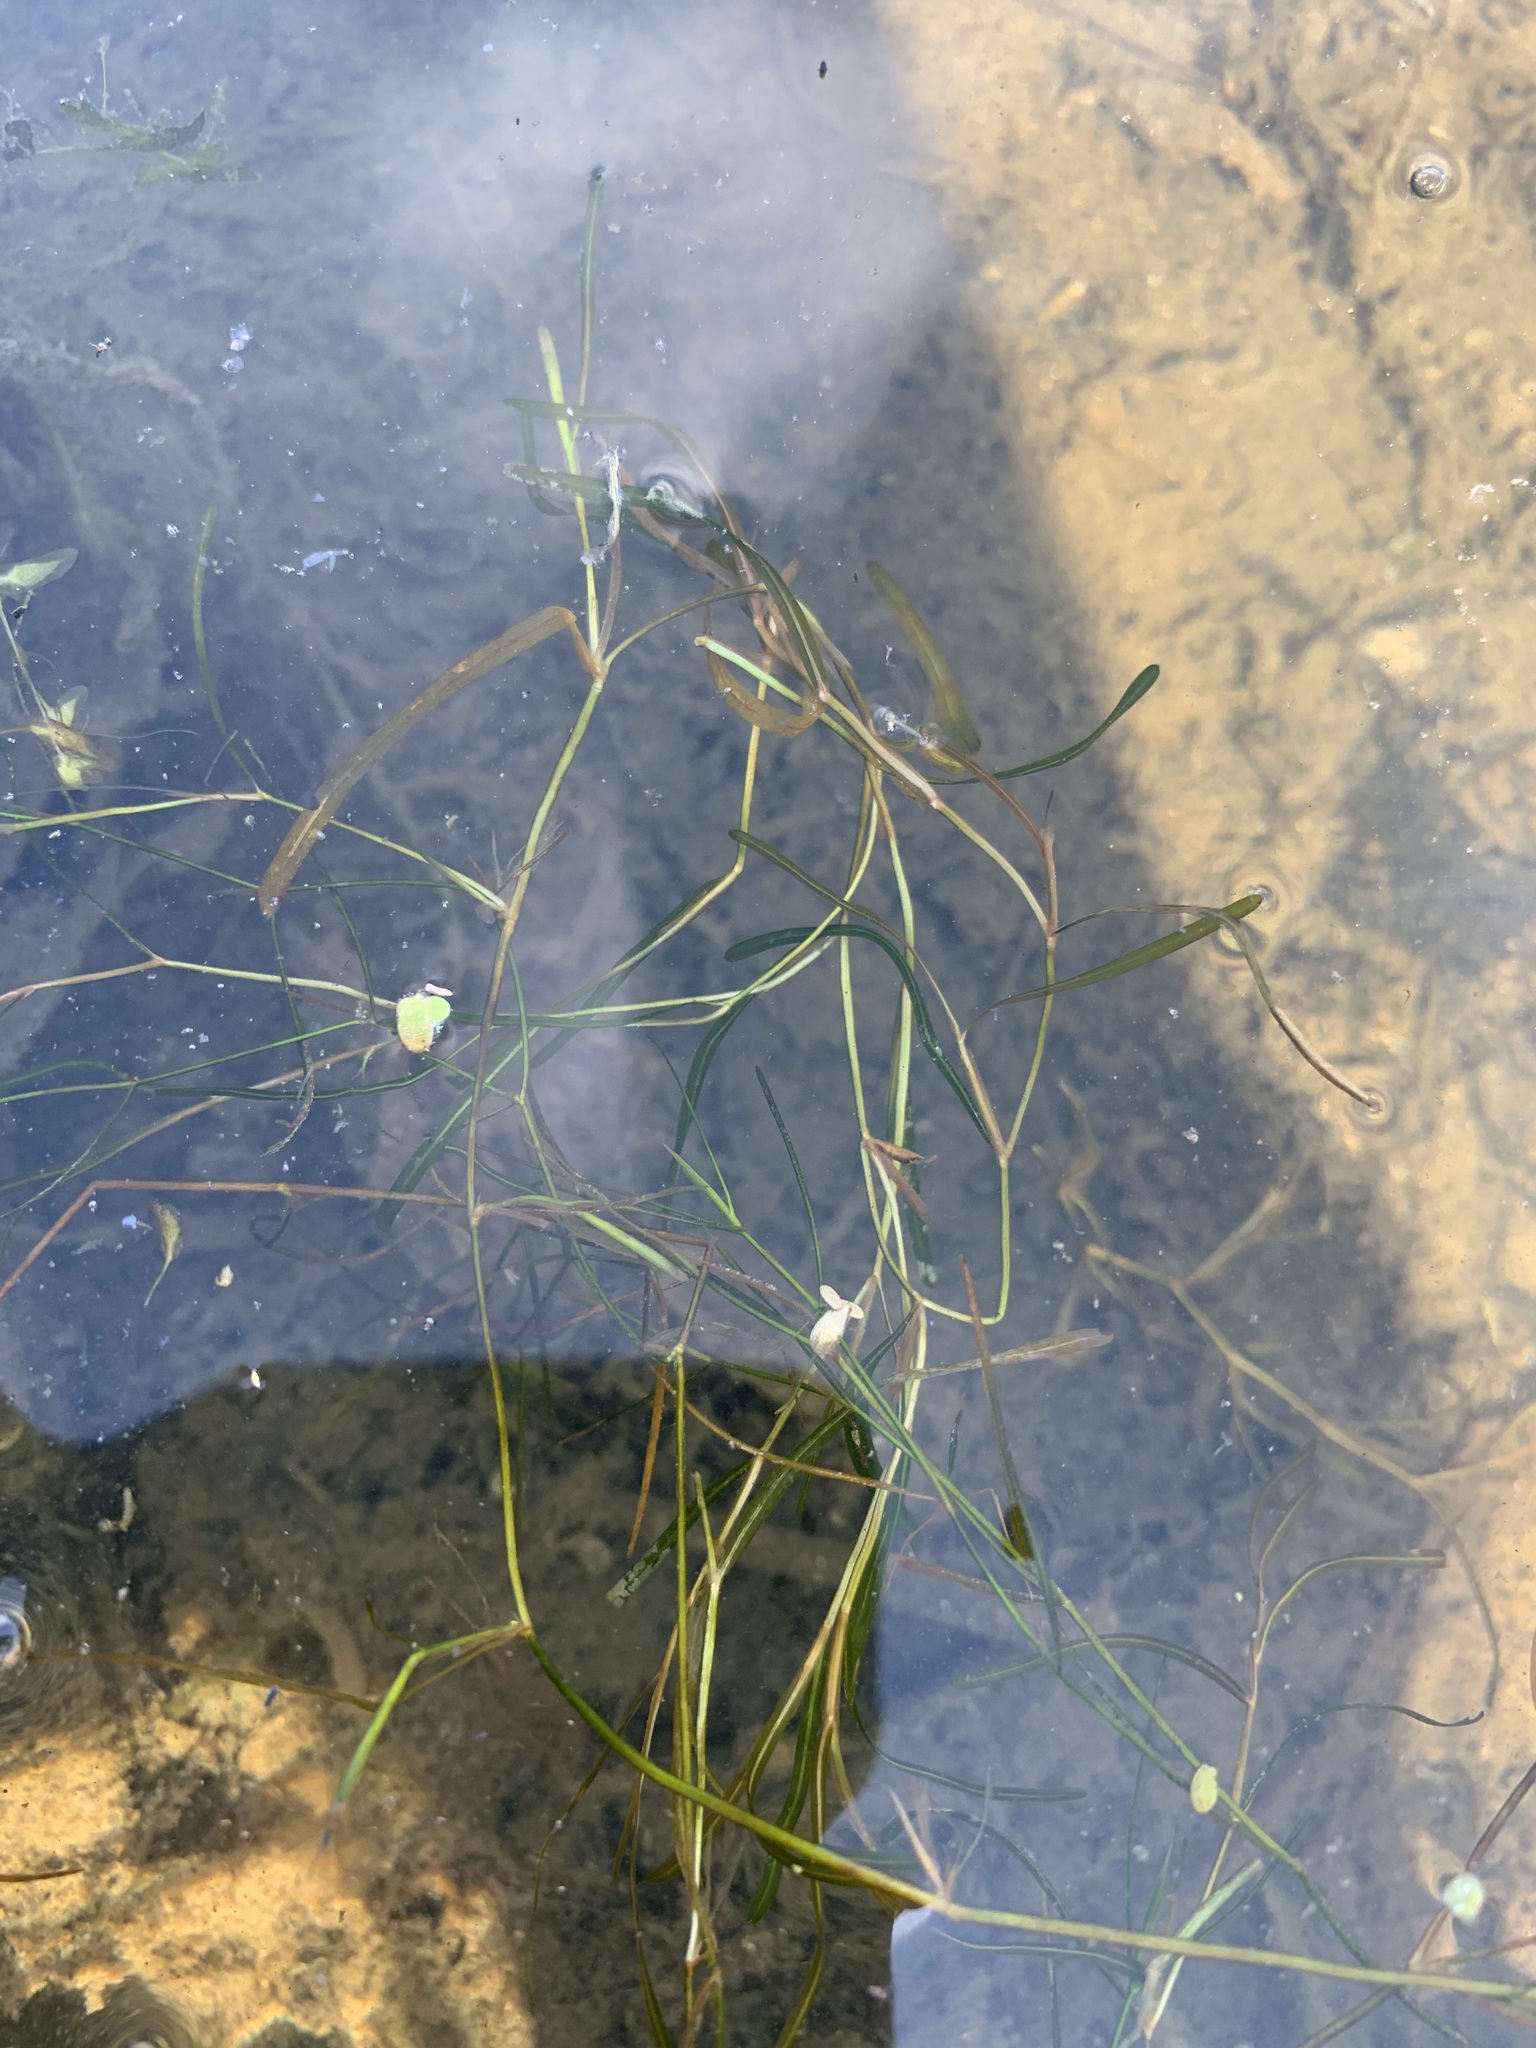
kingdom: Plantae
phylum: Tracheophyta
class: Liliopsida
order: Alismatales
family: Potamogetonaceae
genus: Potamogeton
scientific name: Potamogeton obtusifolius
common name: Blunt-leaved pondweed
